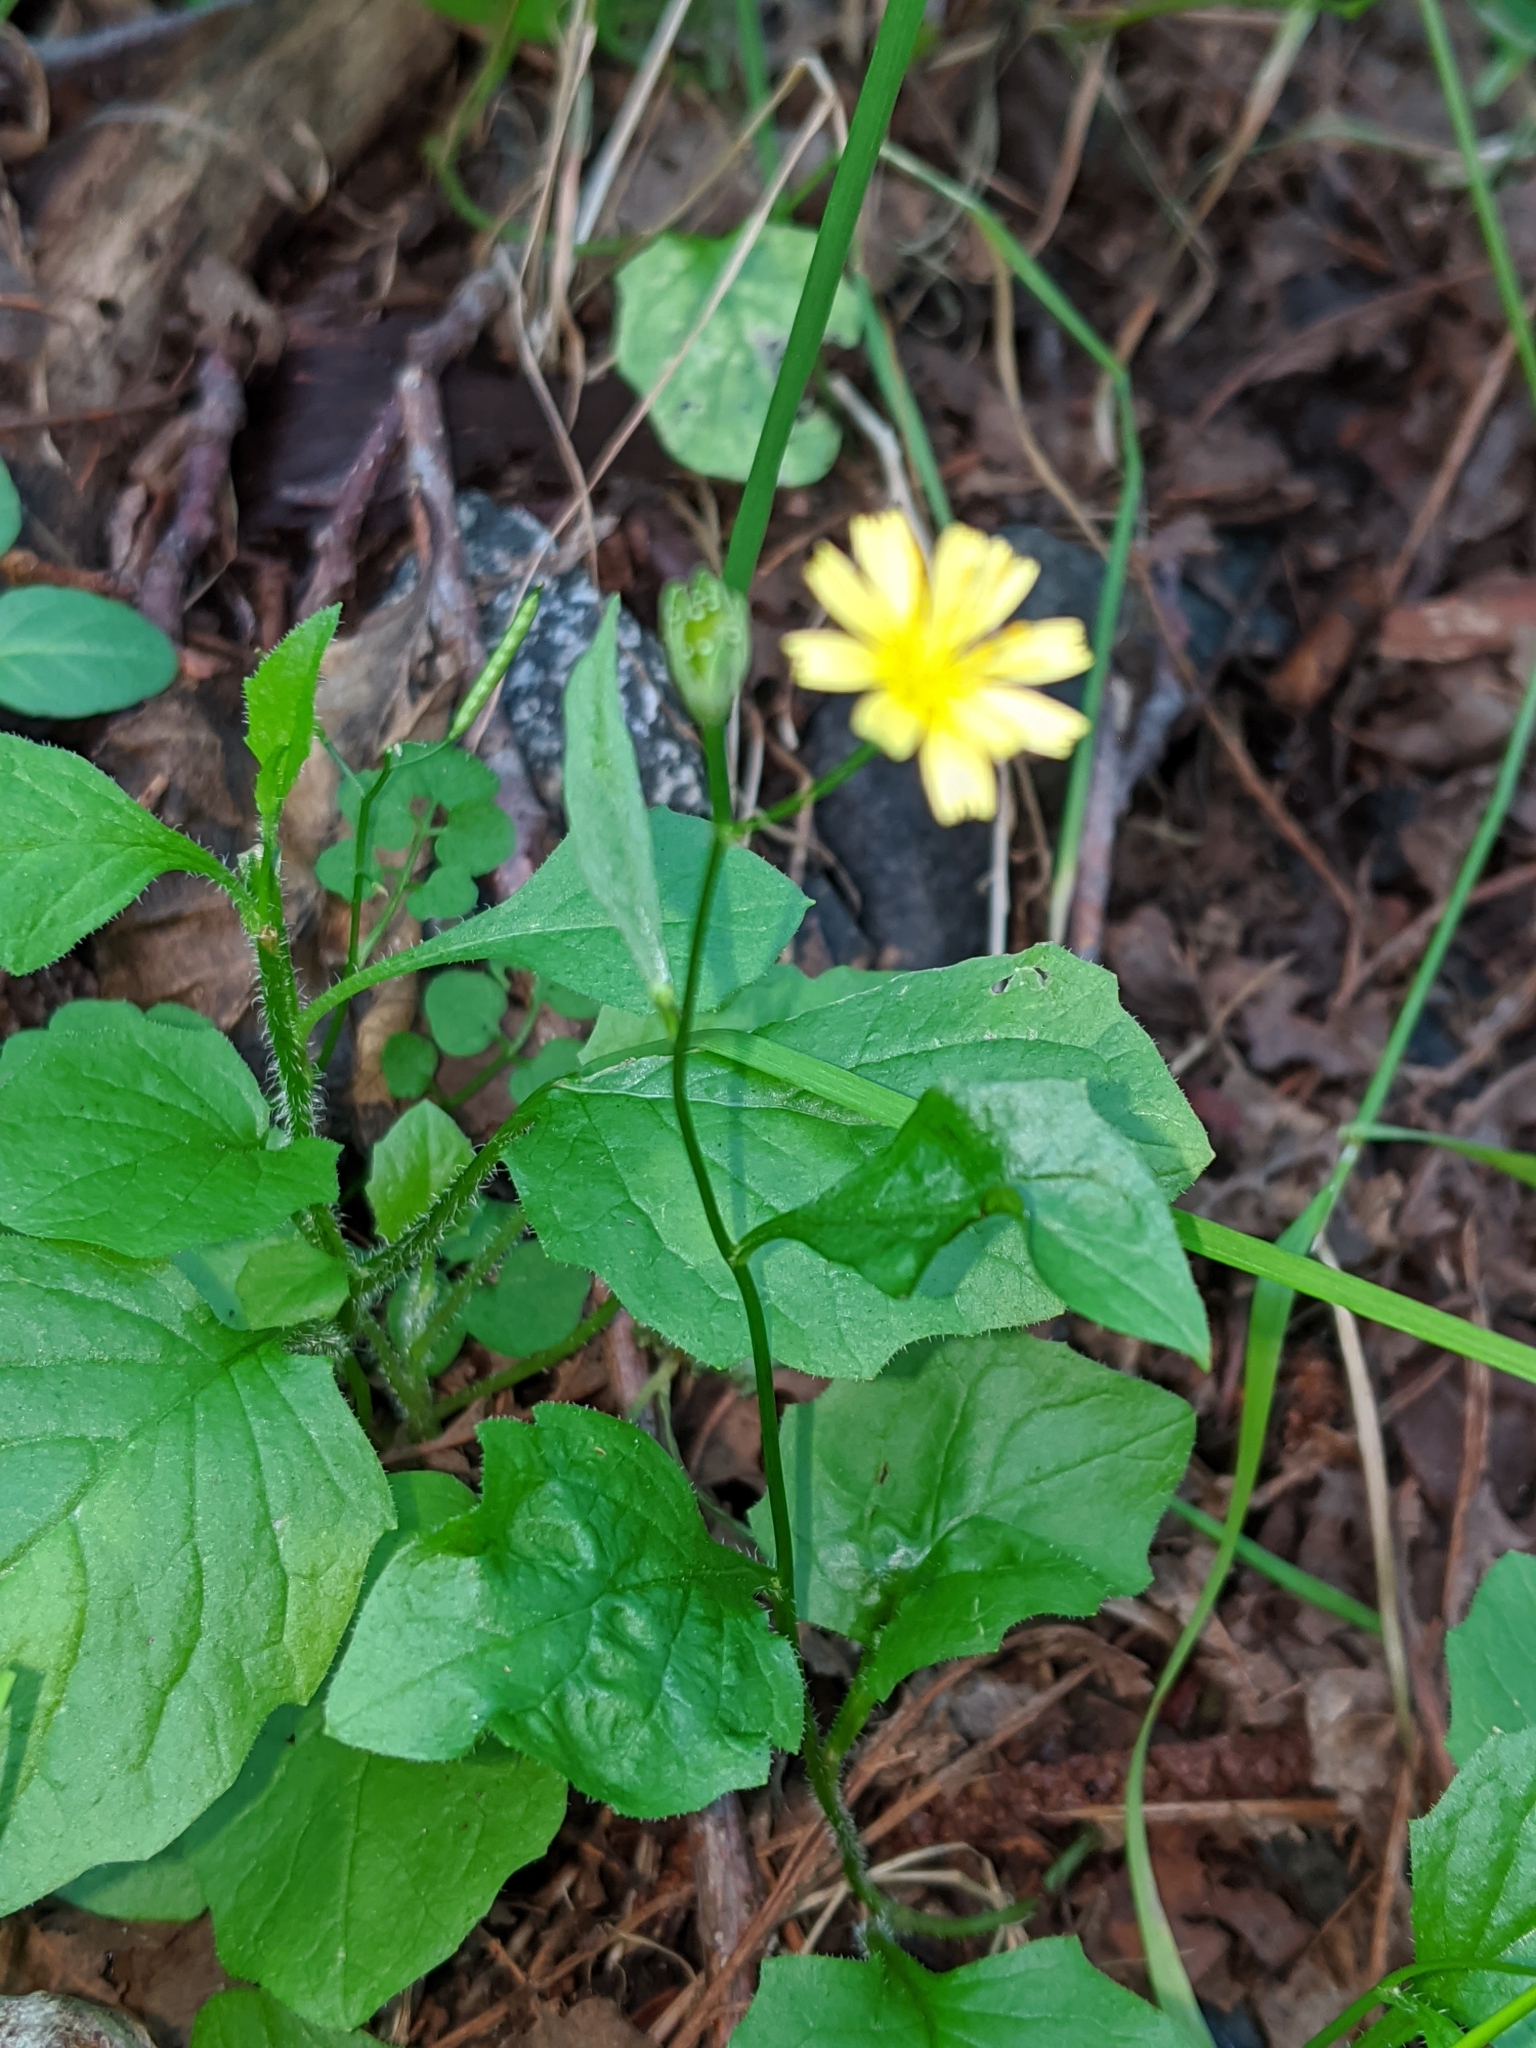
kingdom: Plantae
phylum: Tracheophyta
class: Magnoliopsida
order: Asterales
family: Asteraceae
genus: Lapsana
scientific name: Lapsana communis
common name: Nipplewort
